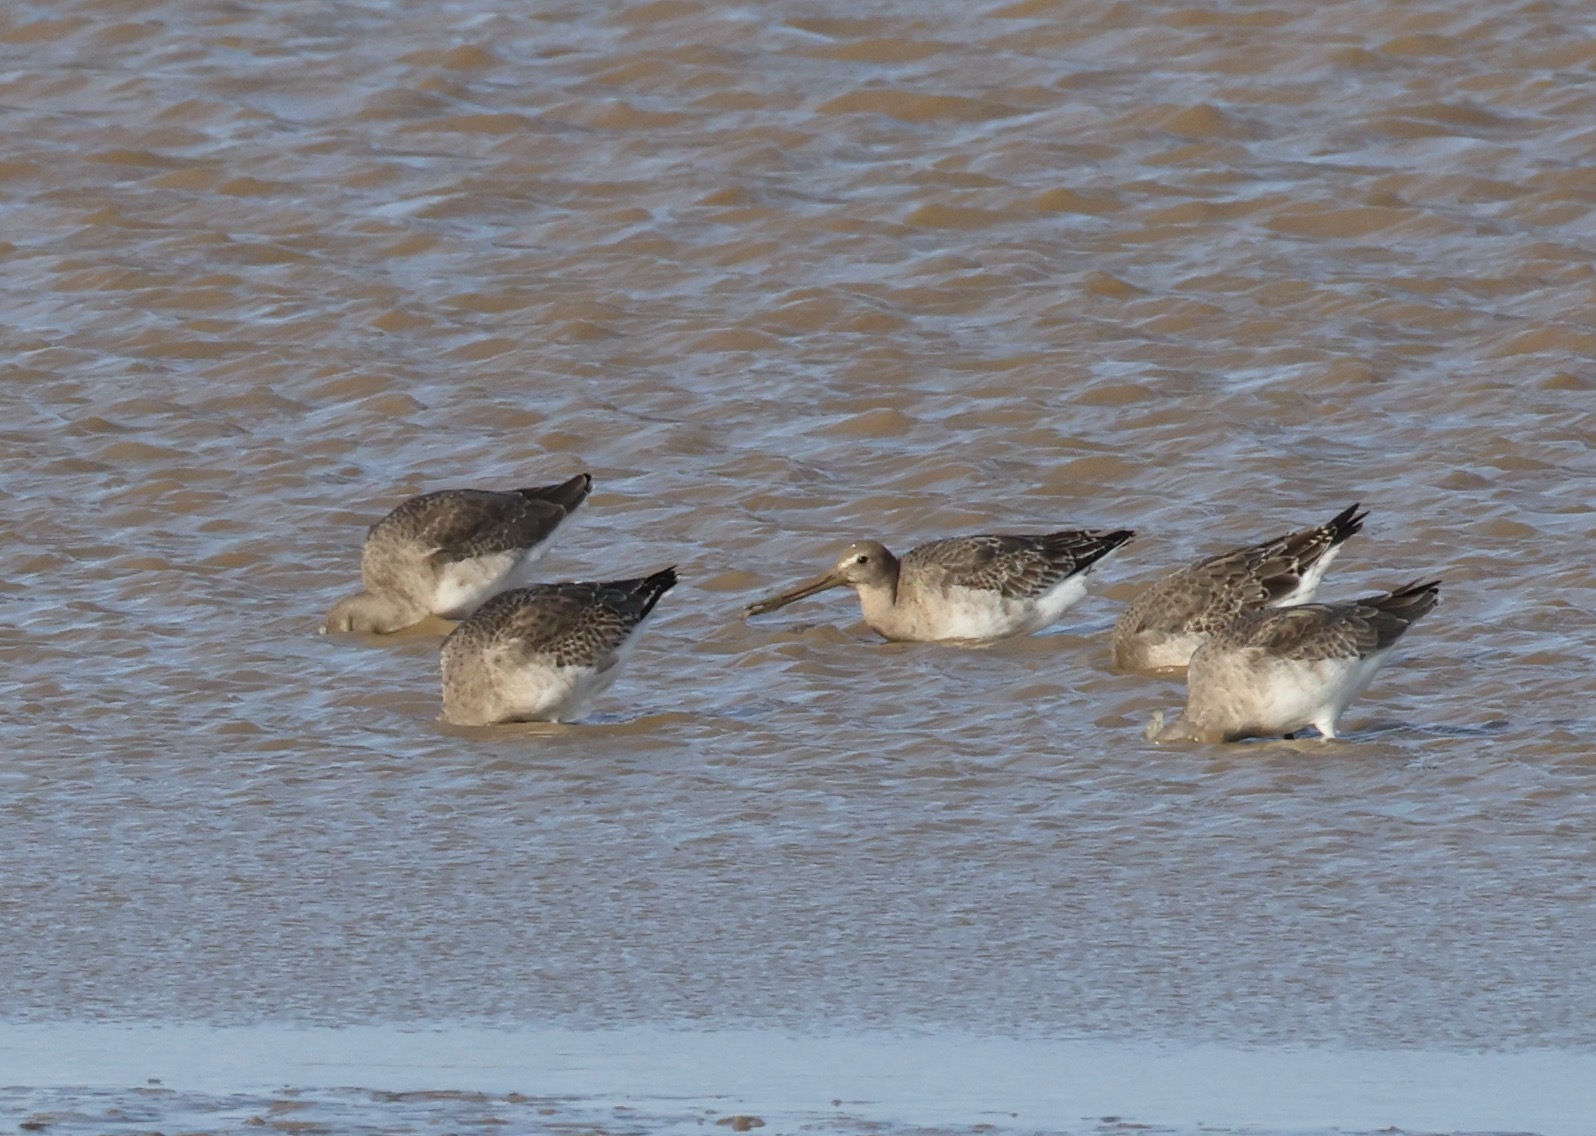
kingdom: Animalia
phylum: Chordata
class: Aves
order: Charadriiformes
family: Scolopacidae
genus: Limosa
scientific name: Limosa limosa
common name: Black-tailed godwit
